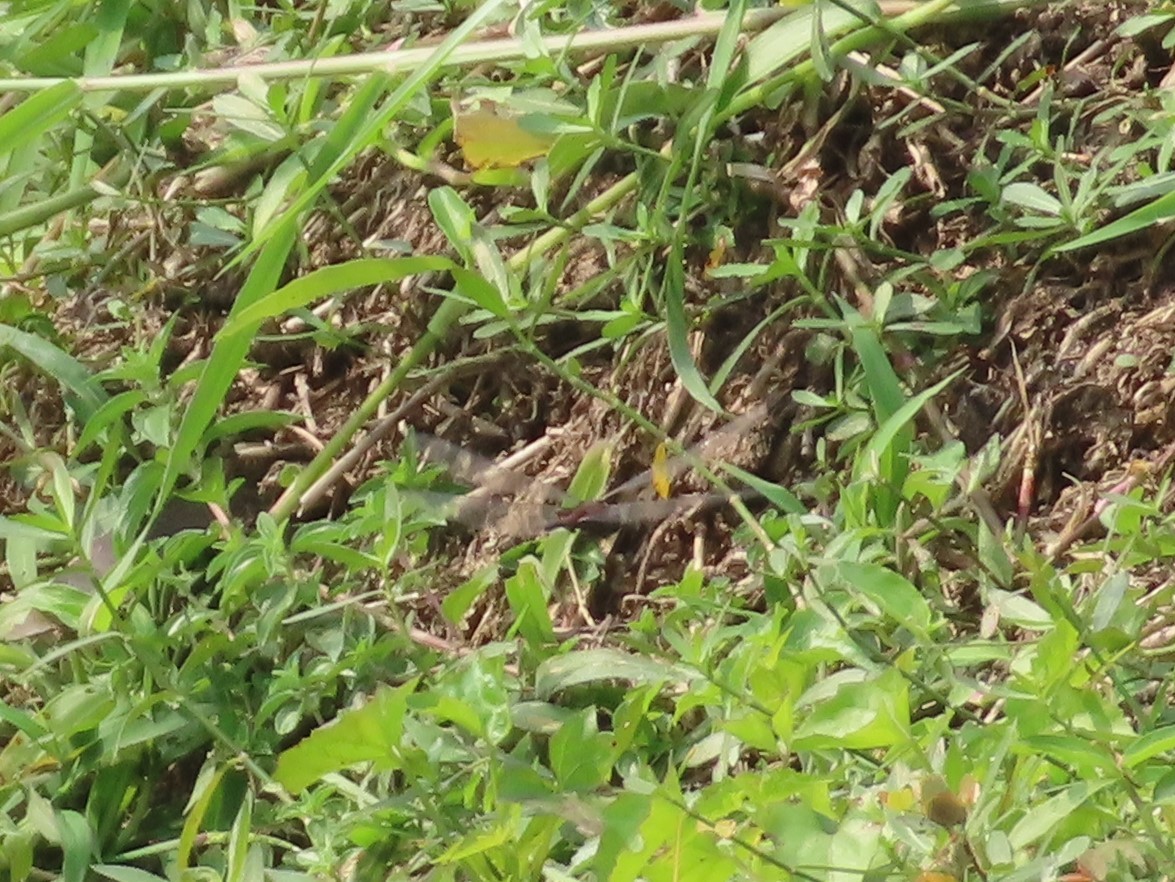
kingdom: Animalia
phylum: Arthropoda
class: Insecta
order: Odonata
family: Libellulidae
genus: Tramea
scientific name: Tramea limbata
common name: Ferruginous glider
